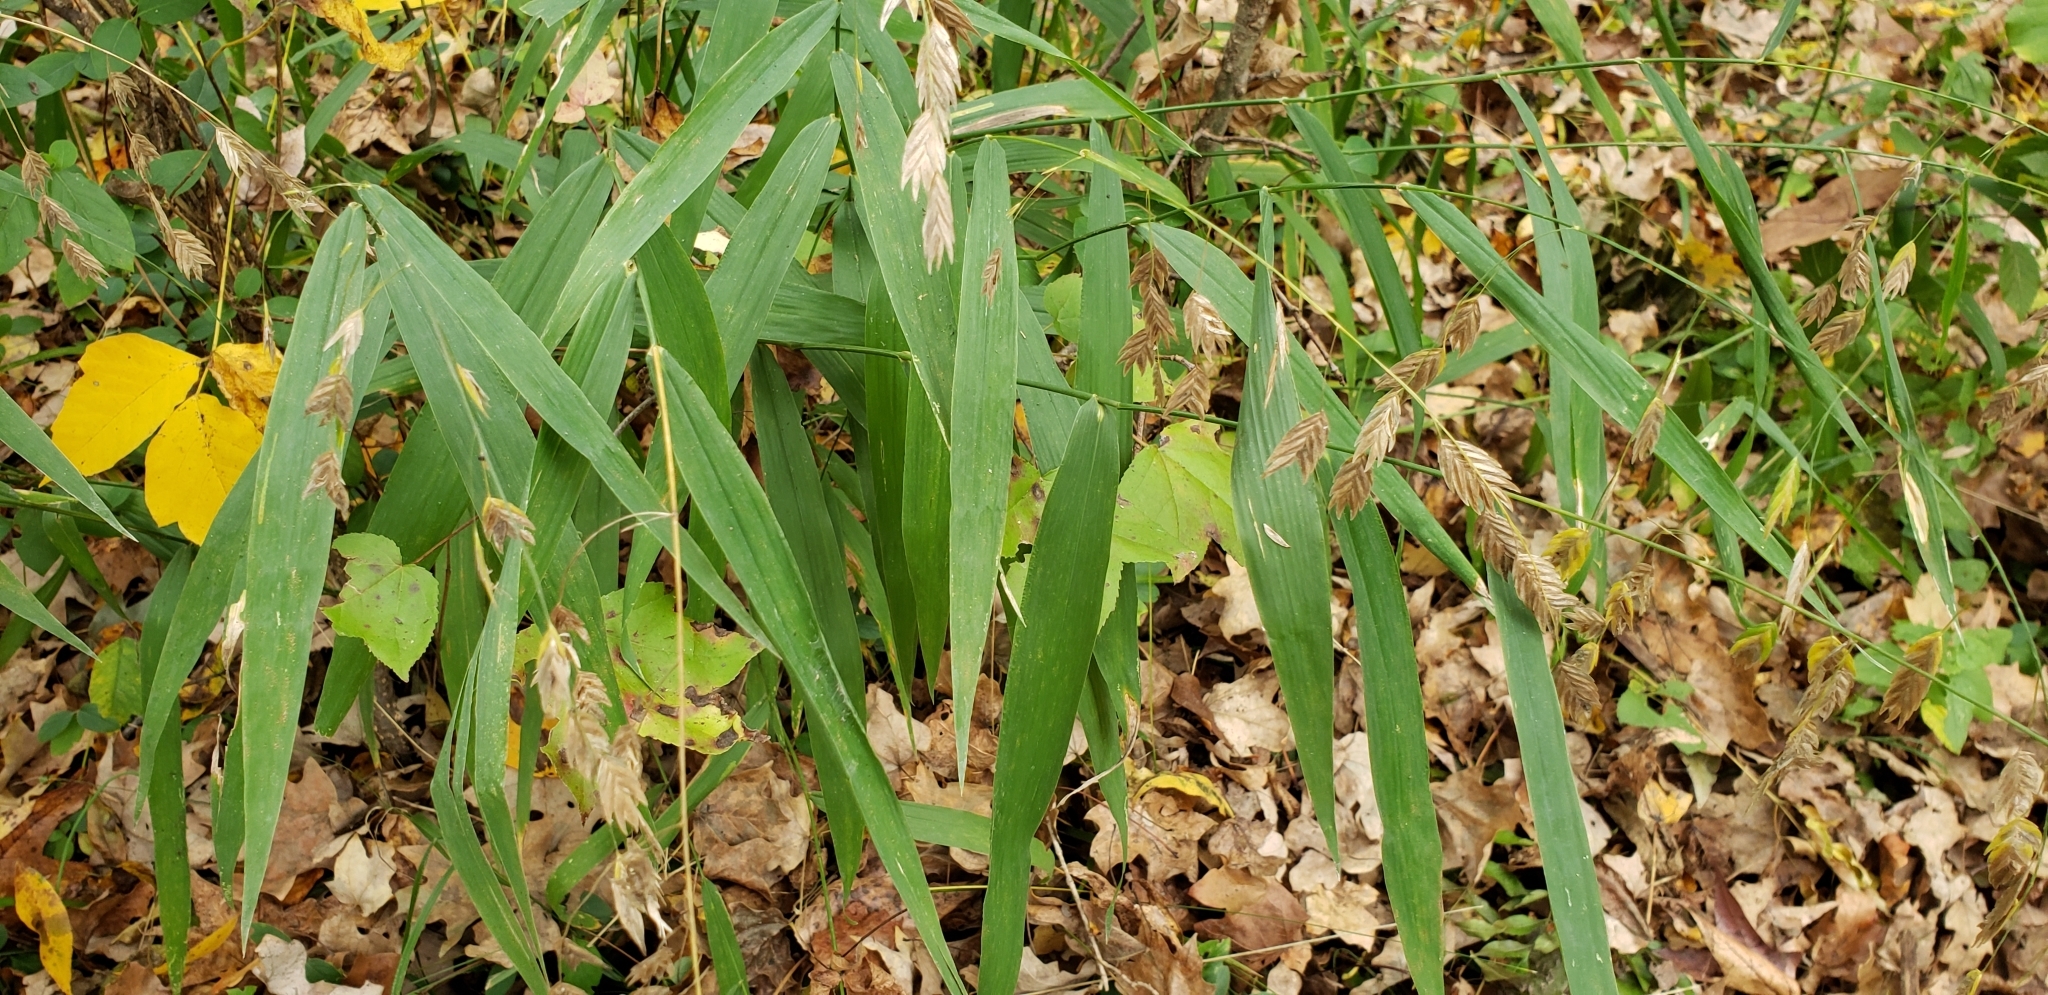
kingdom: Plantae
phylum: Tracheophyta
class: Liliopsida
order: Poales
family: Poaceae
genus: Chasmanthium
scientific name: Chasmanthium latifolium
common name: Broad-leaved chasmanthium
